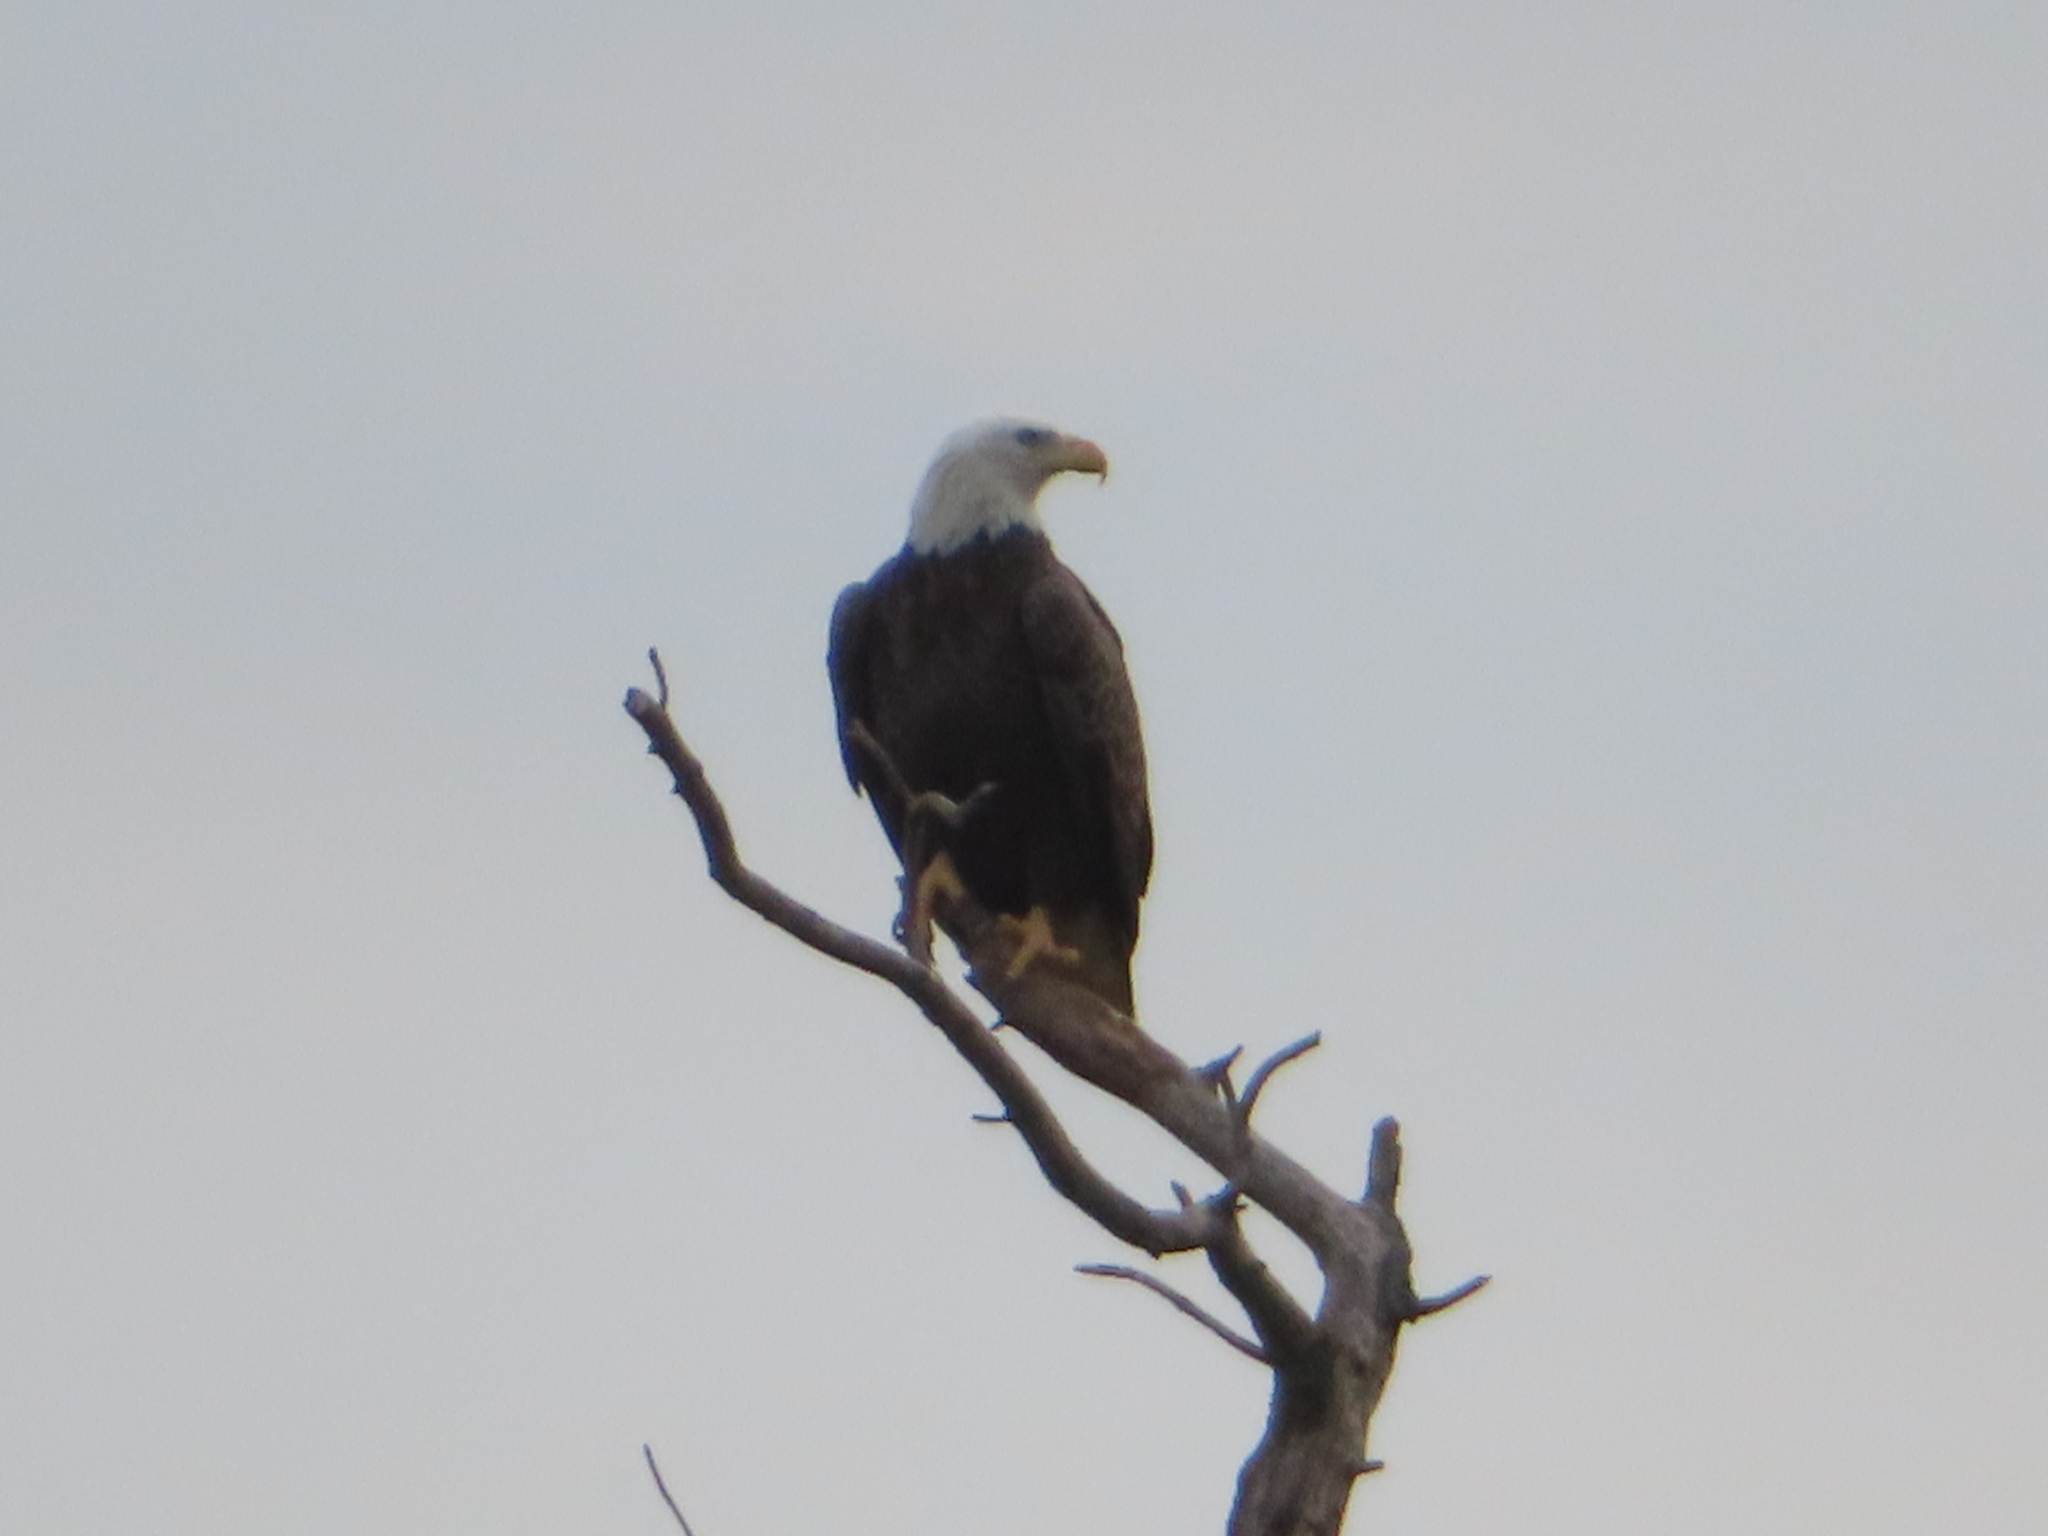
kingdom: Animalia
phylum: Chordata
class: Aves
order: Accipitriformes
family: Accipitridae
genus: Haliaeetus
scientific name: Haliaeetus leucocephalus
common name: Bald eagle
